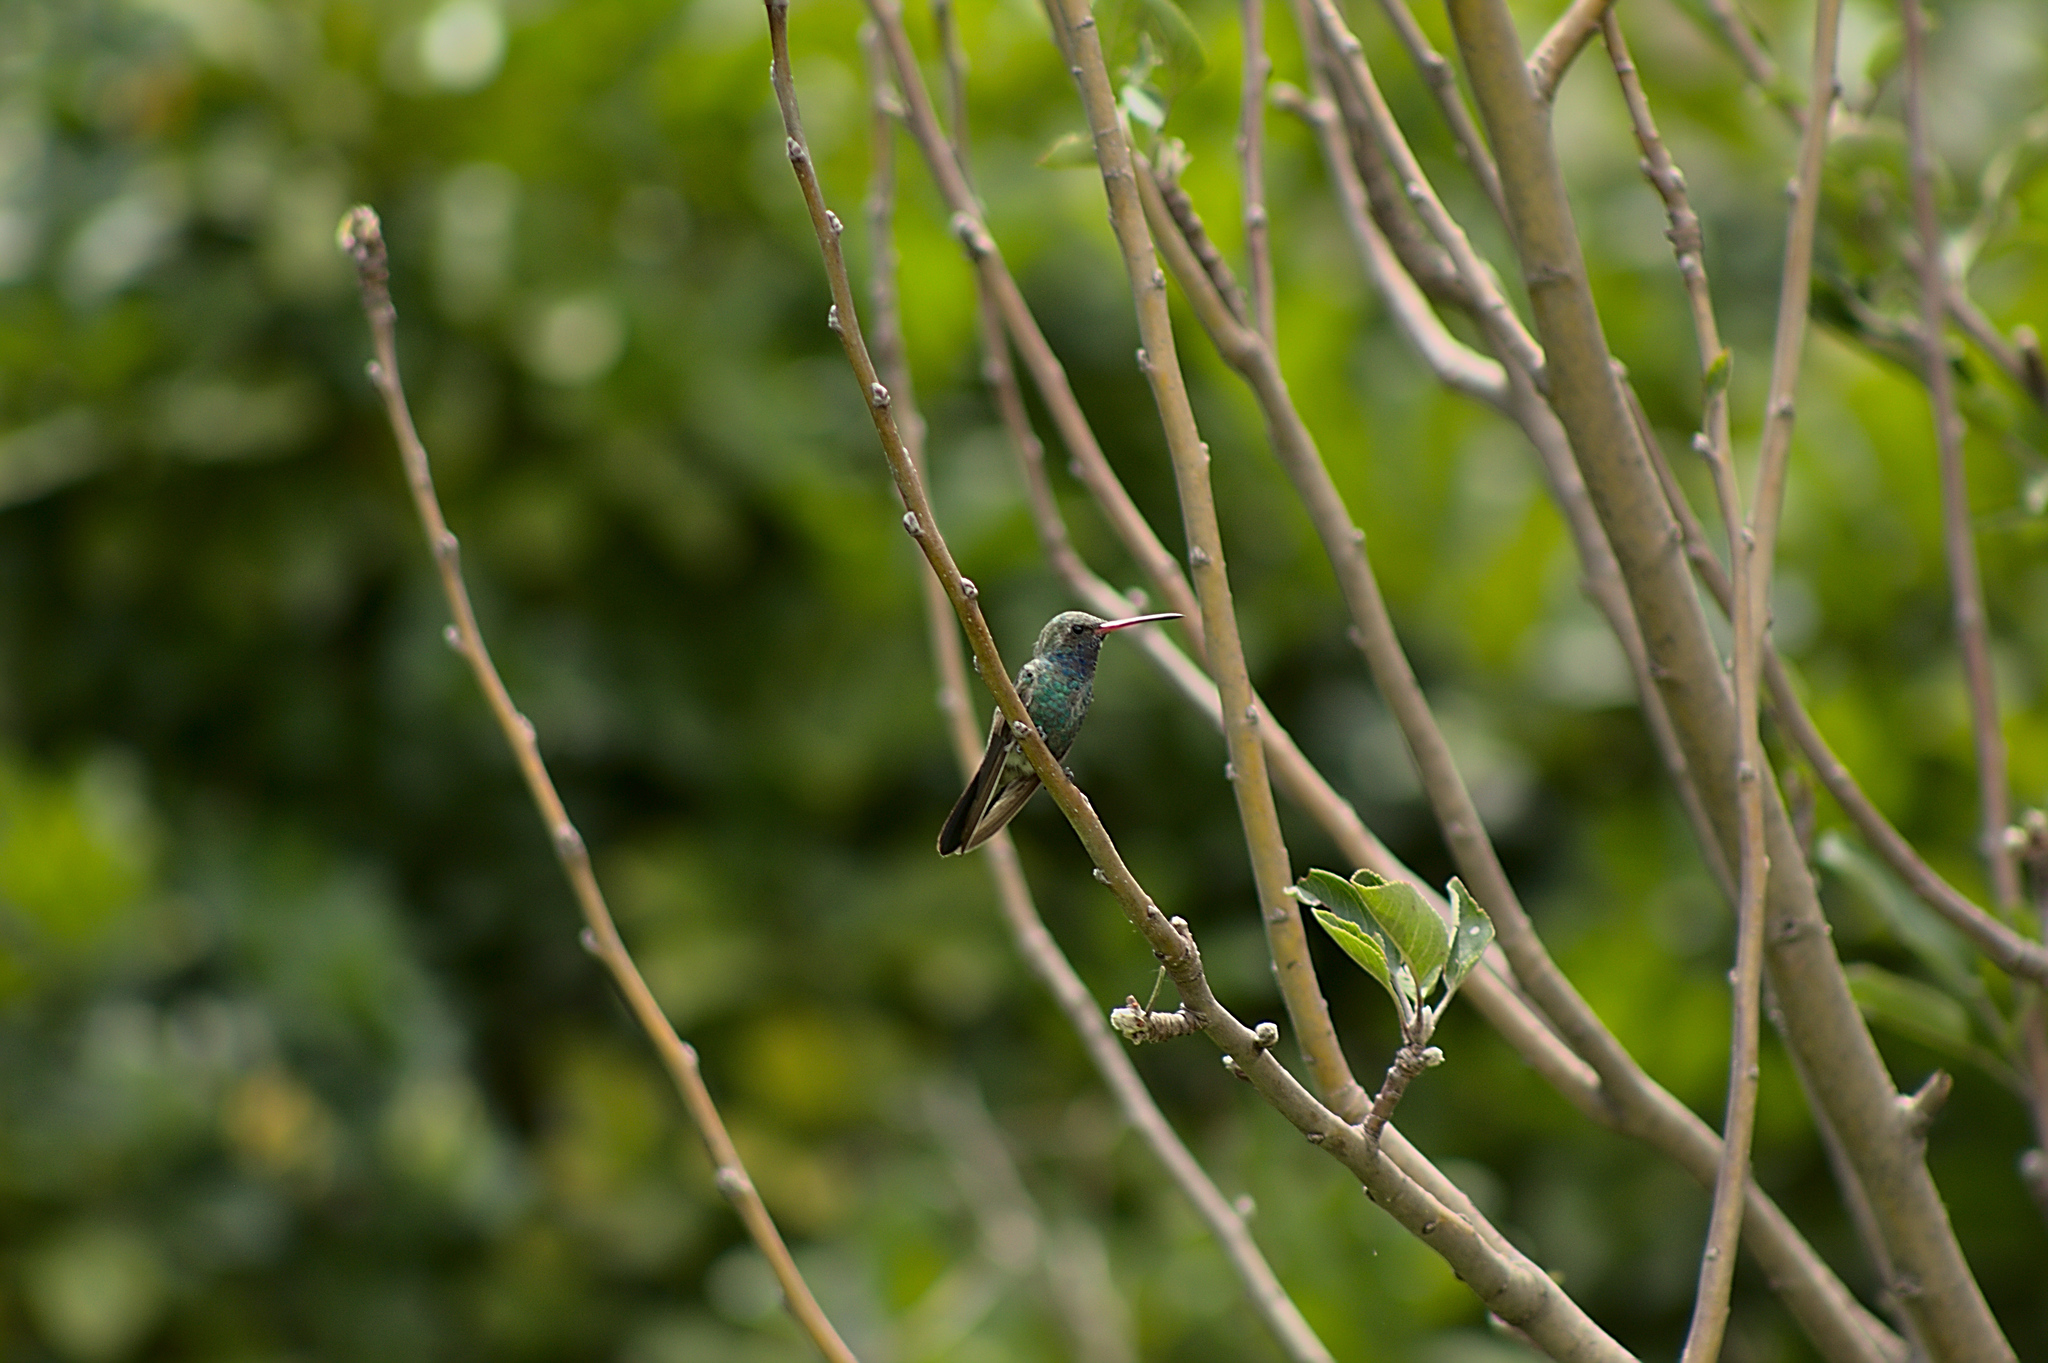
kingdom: Animalia
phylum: Chordata
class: Aves
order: Apodiformes
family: Trochilidae
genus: Cynanthus
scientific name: Cynanthus latirostris
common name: Broad-billed hummingbird
